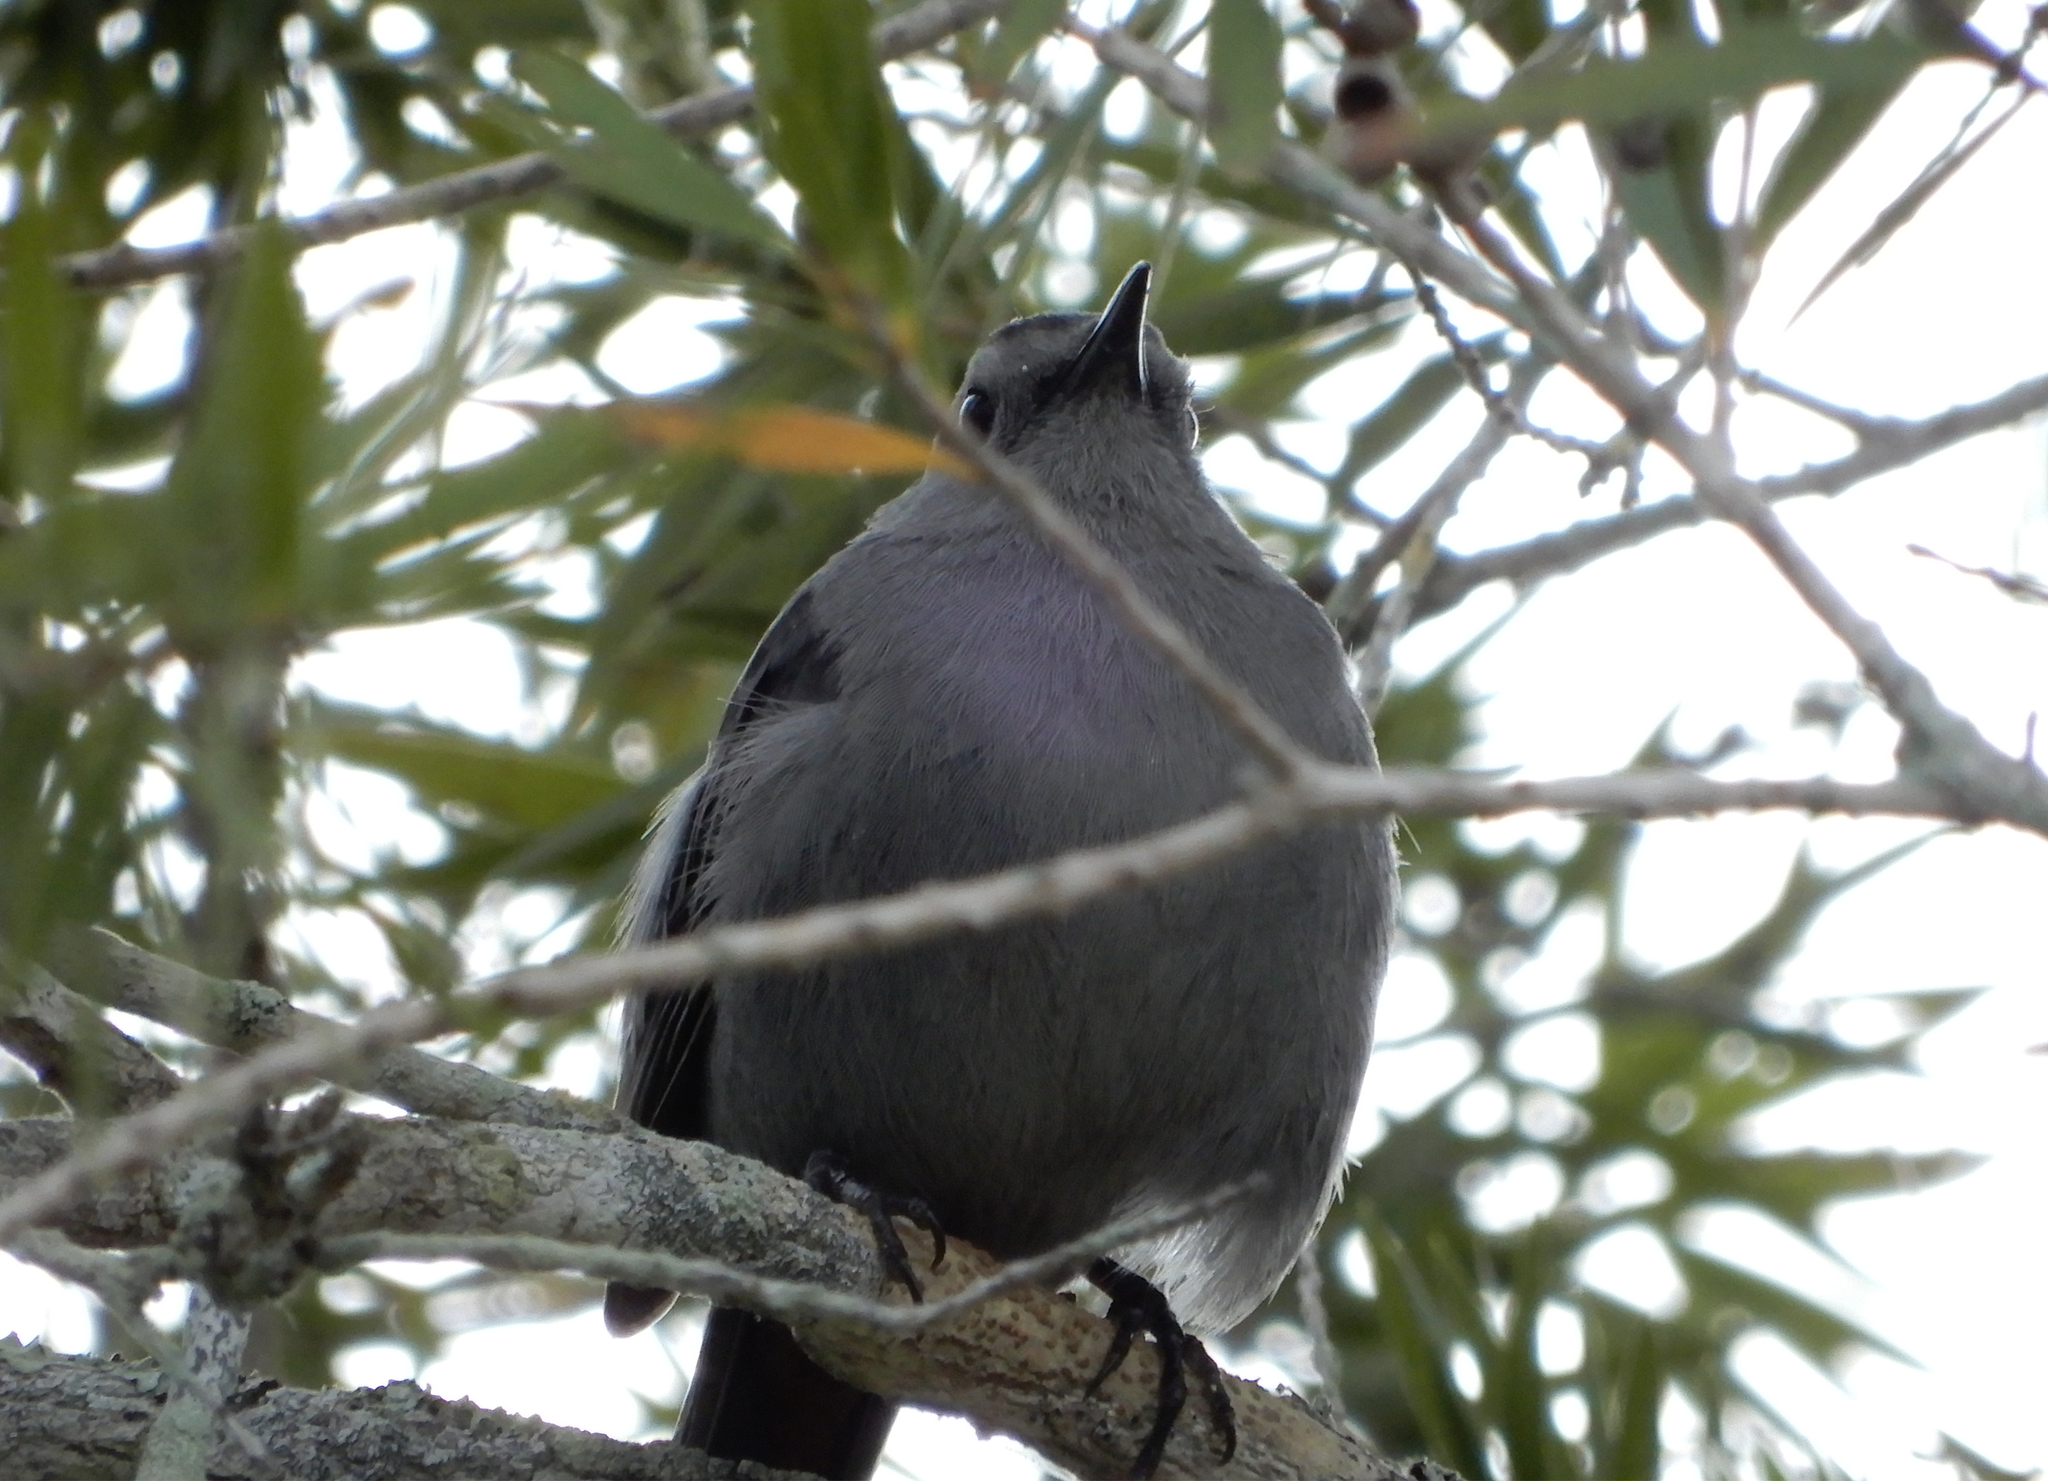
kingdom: Animalia
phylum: Chordata
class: Aves
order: Passeriformes
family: Mimidae
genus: Dumetella
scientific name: Dumetella carolinensis
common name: Gray catbird
